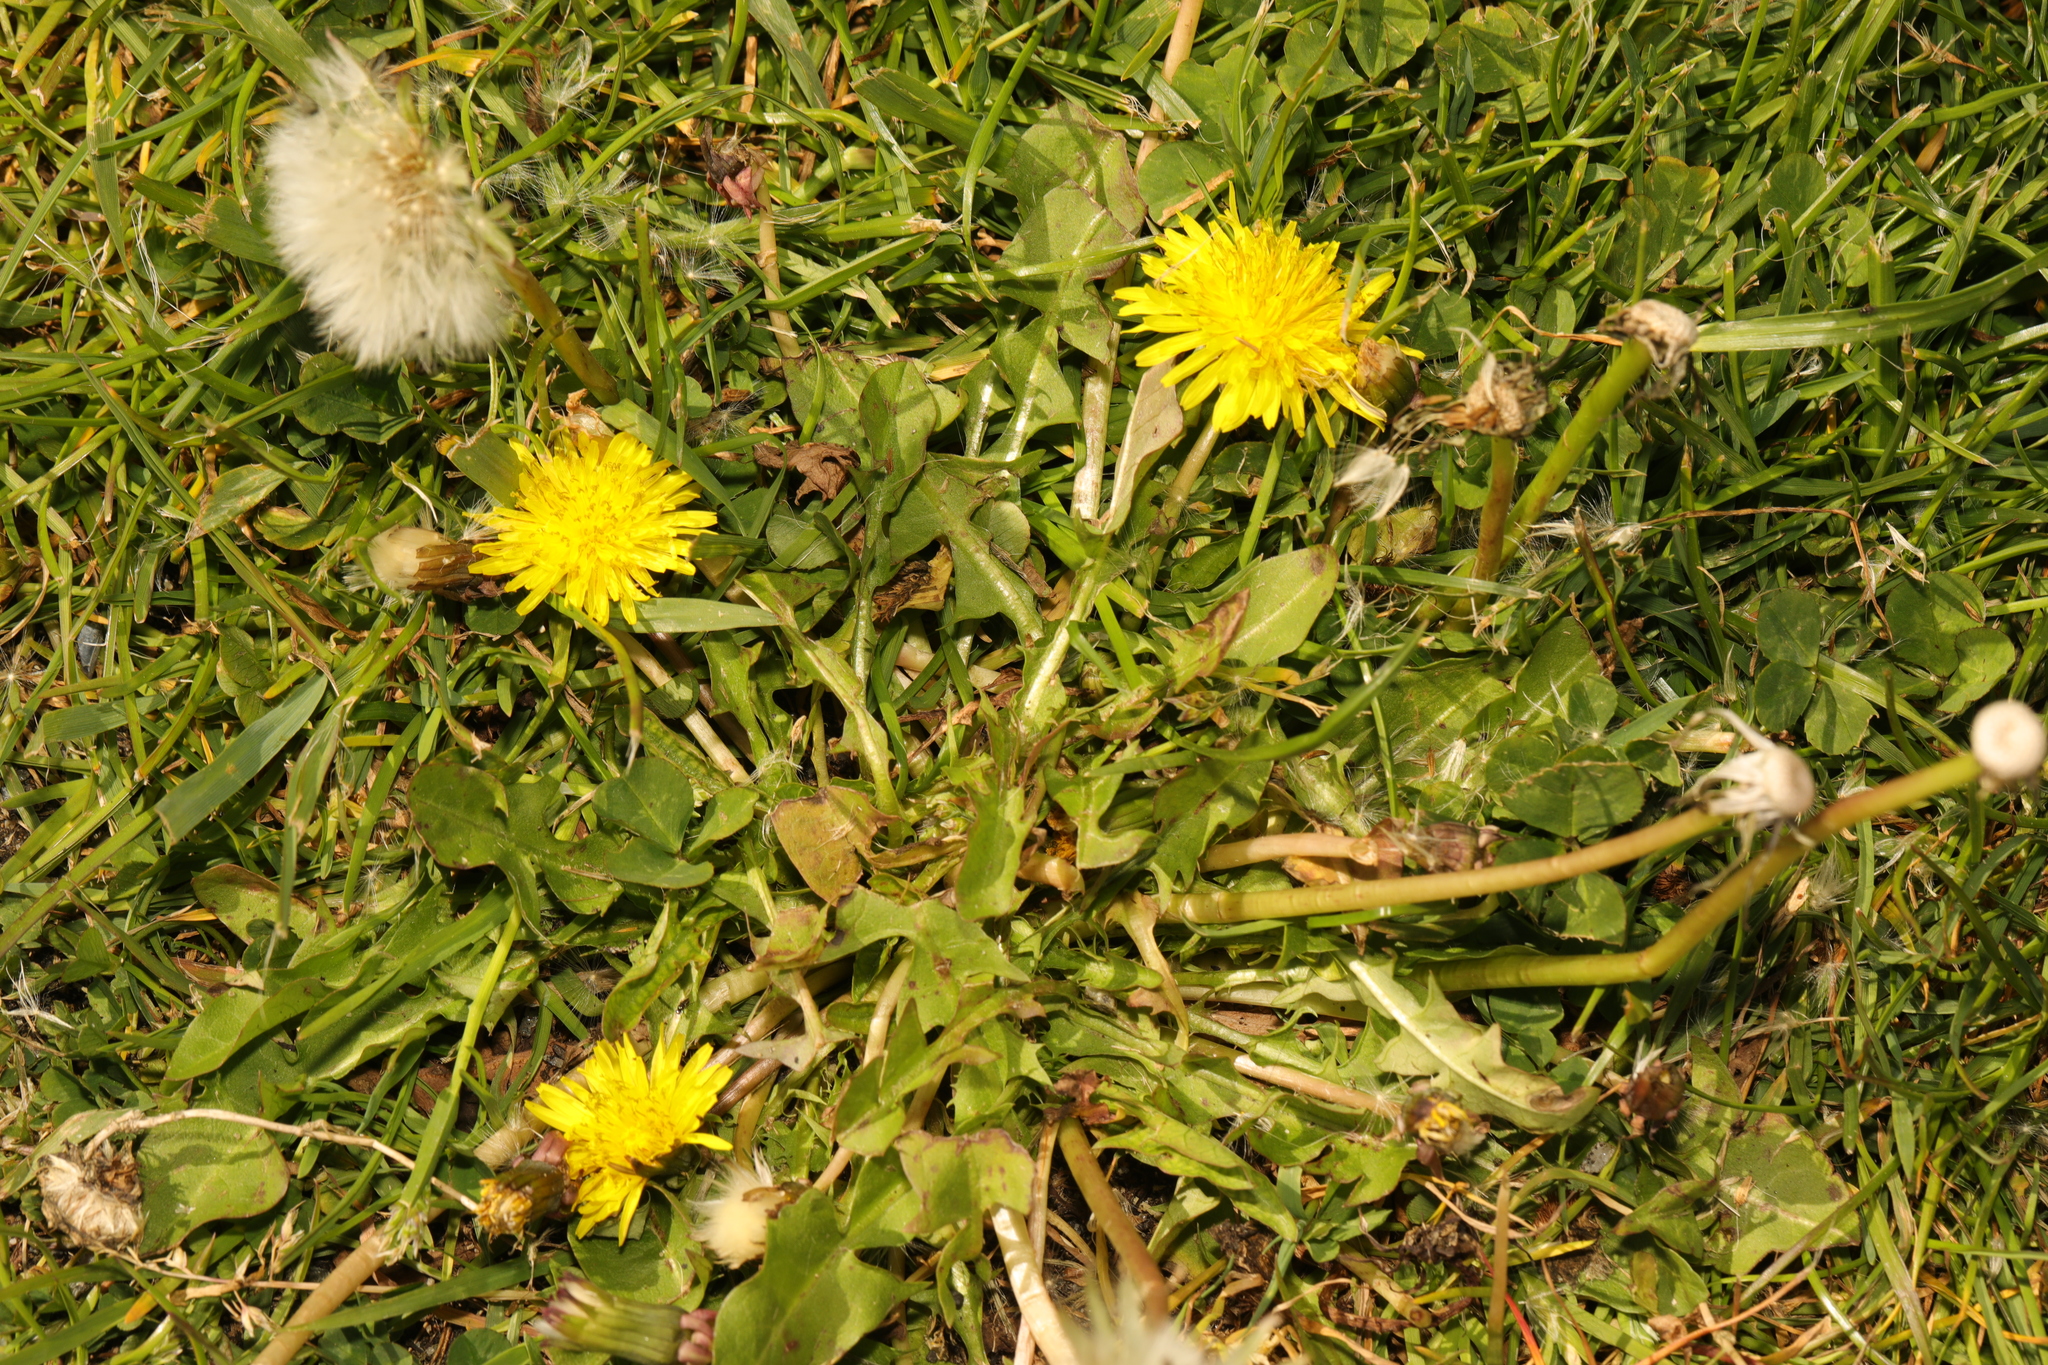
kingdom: Plantae
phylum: Tracheophyta
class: Magnoliopsida
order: Asterales
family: Asteraceae
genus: Taraxacum
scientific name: Taraxacum officinale
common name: Common dandelion
